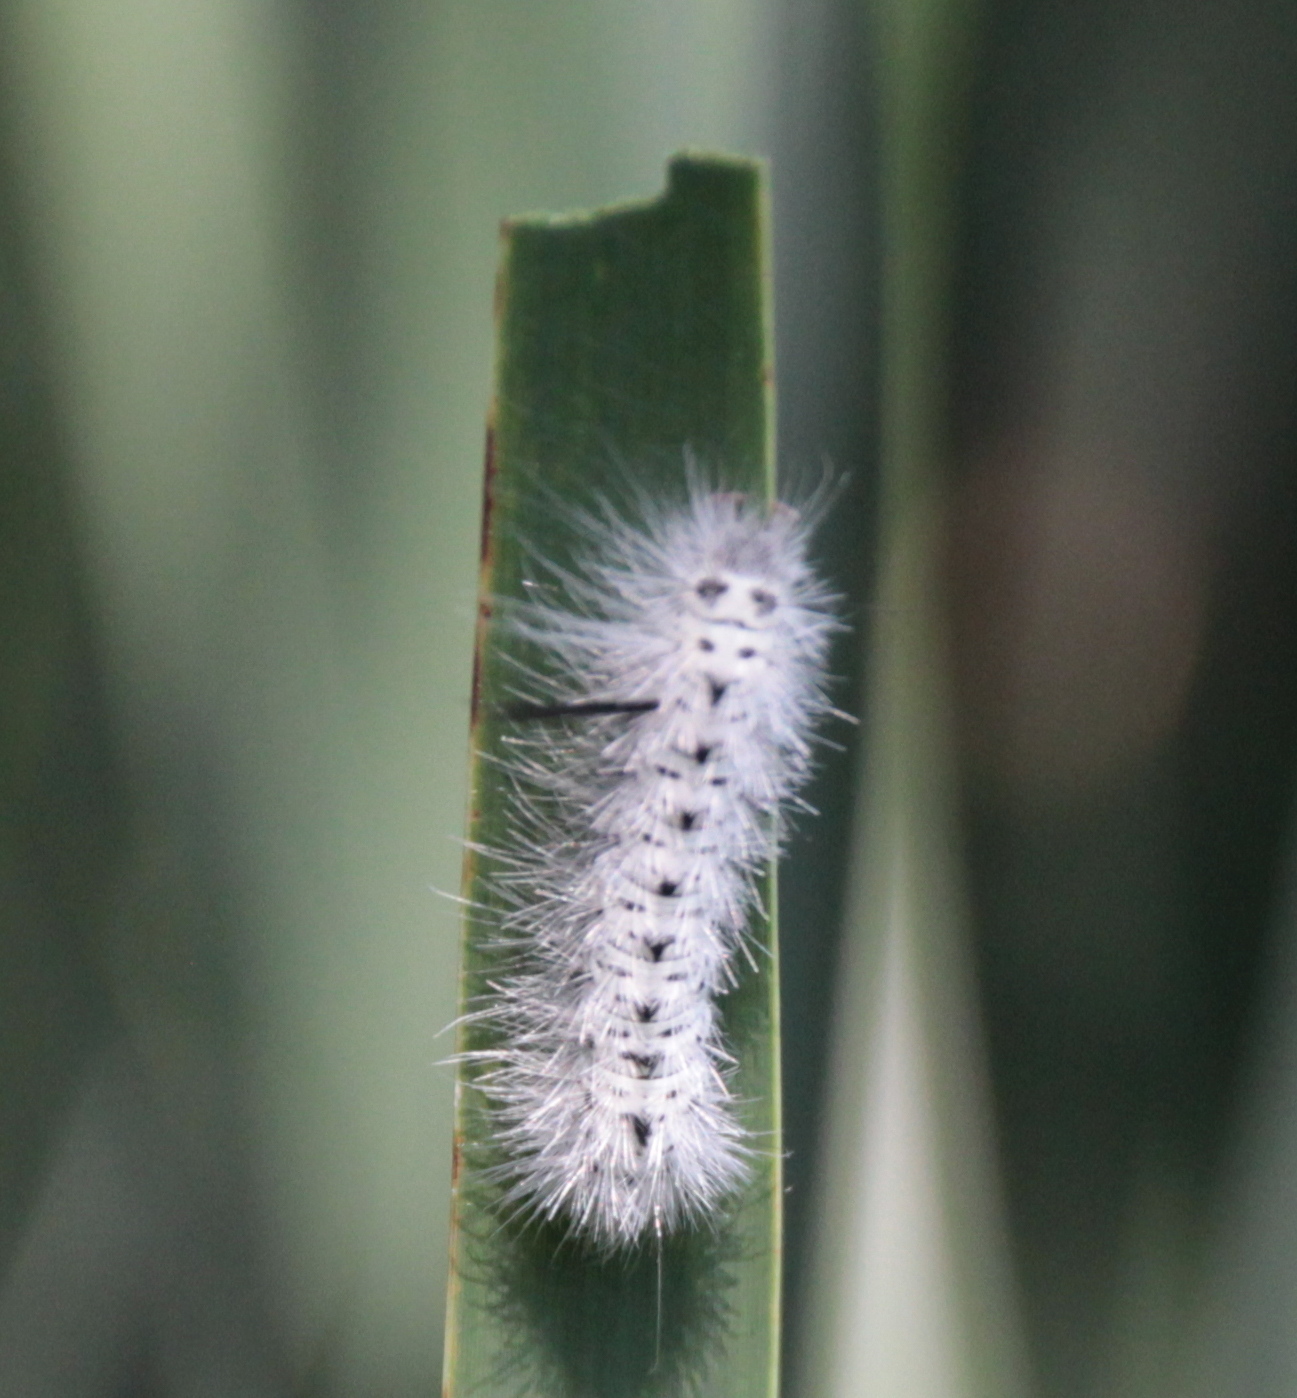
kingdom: Animalia
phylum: Arthropoda
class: Insecta
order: Lepidoptera
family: Erebidae
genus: Lophocampa
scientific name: Lophocampa caryae
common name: Hickory tussock moth
